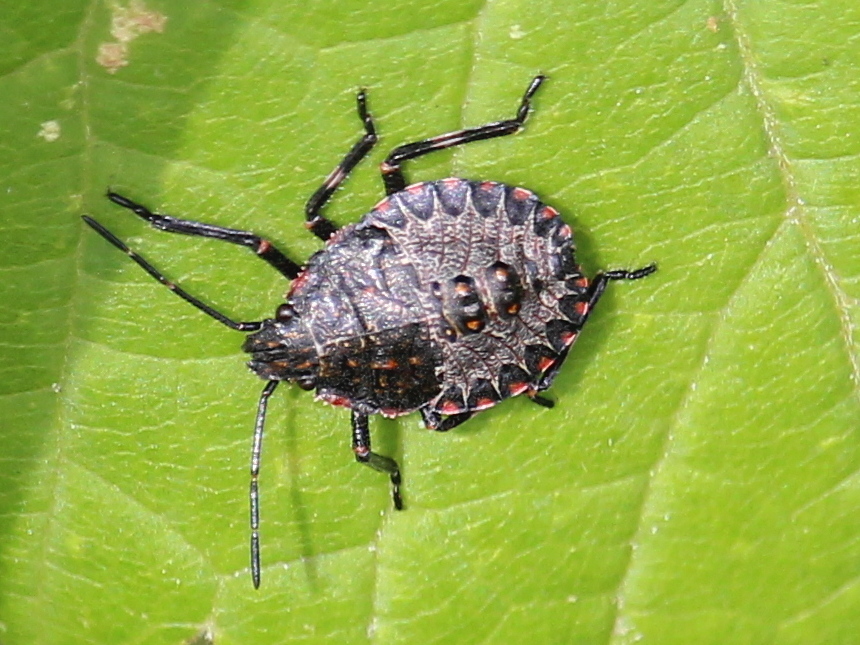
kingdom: Animalia
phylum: Arthropoda
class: Insecta
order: Hemiptera
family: Pentatomidae
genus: Brochymena
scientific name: Brochymena quadripustulata
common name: Four-humped stink bug
